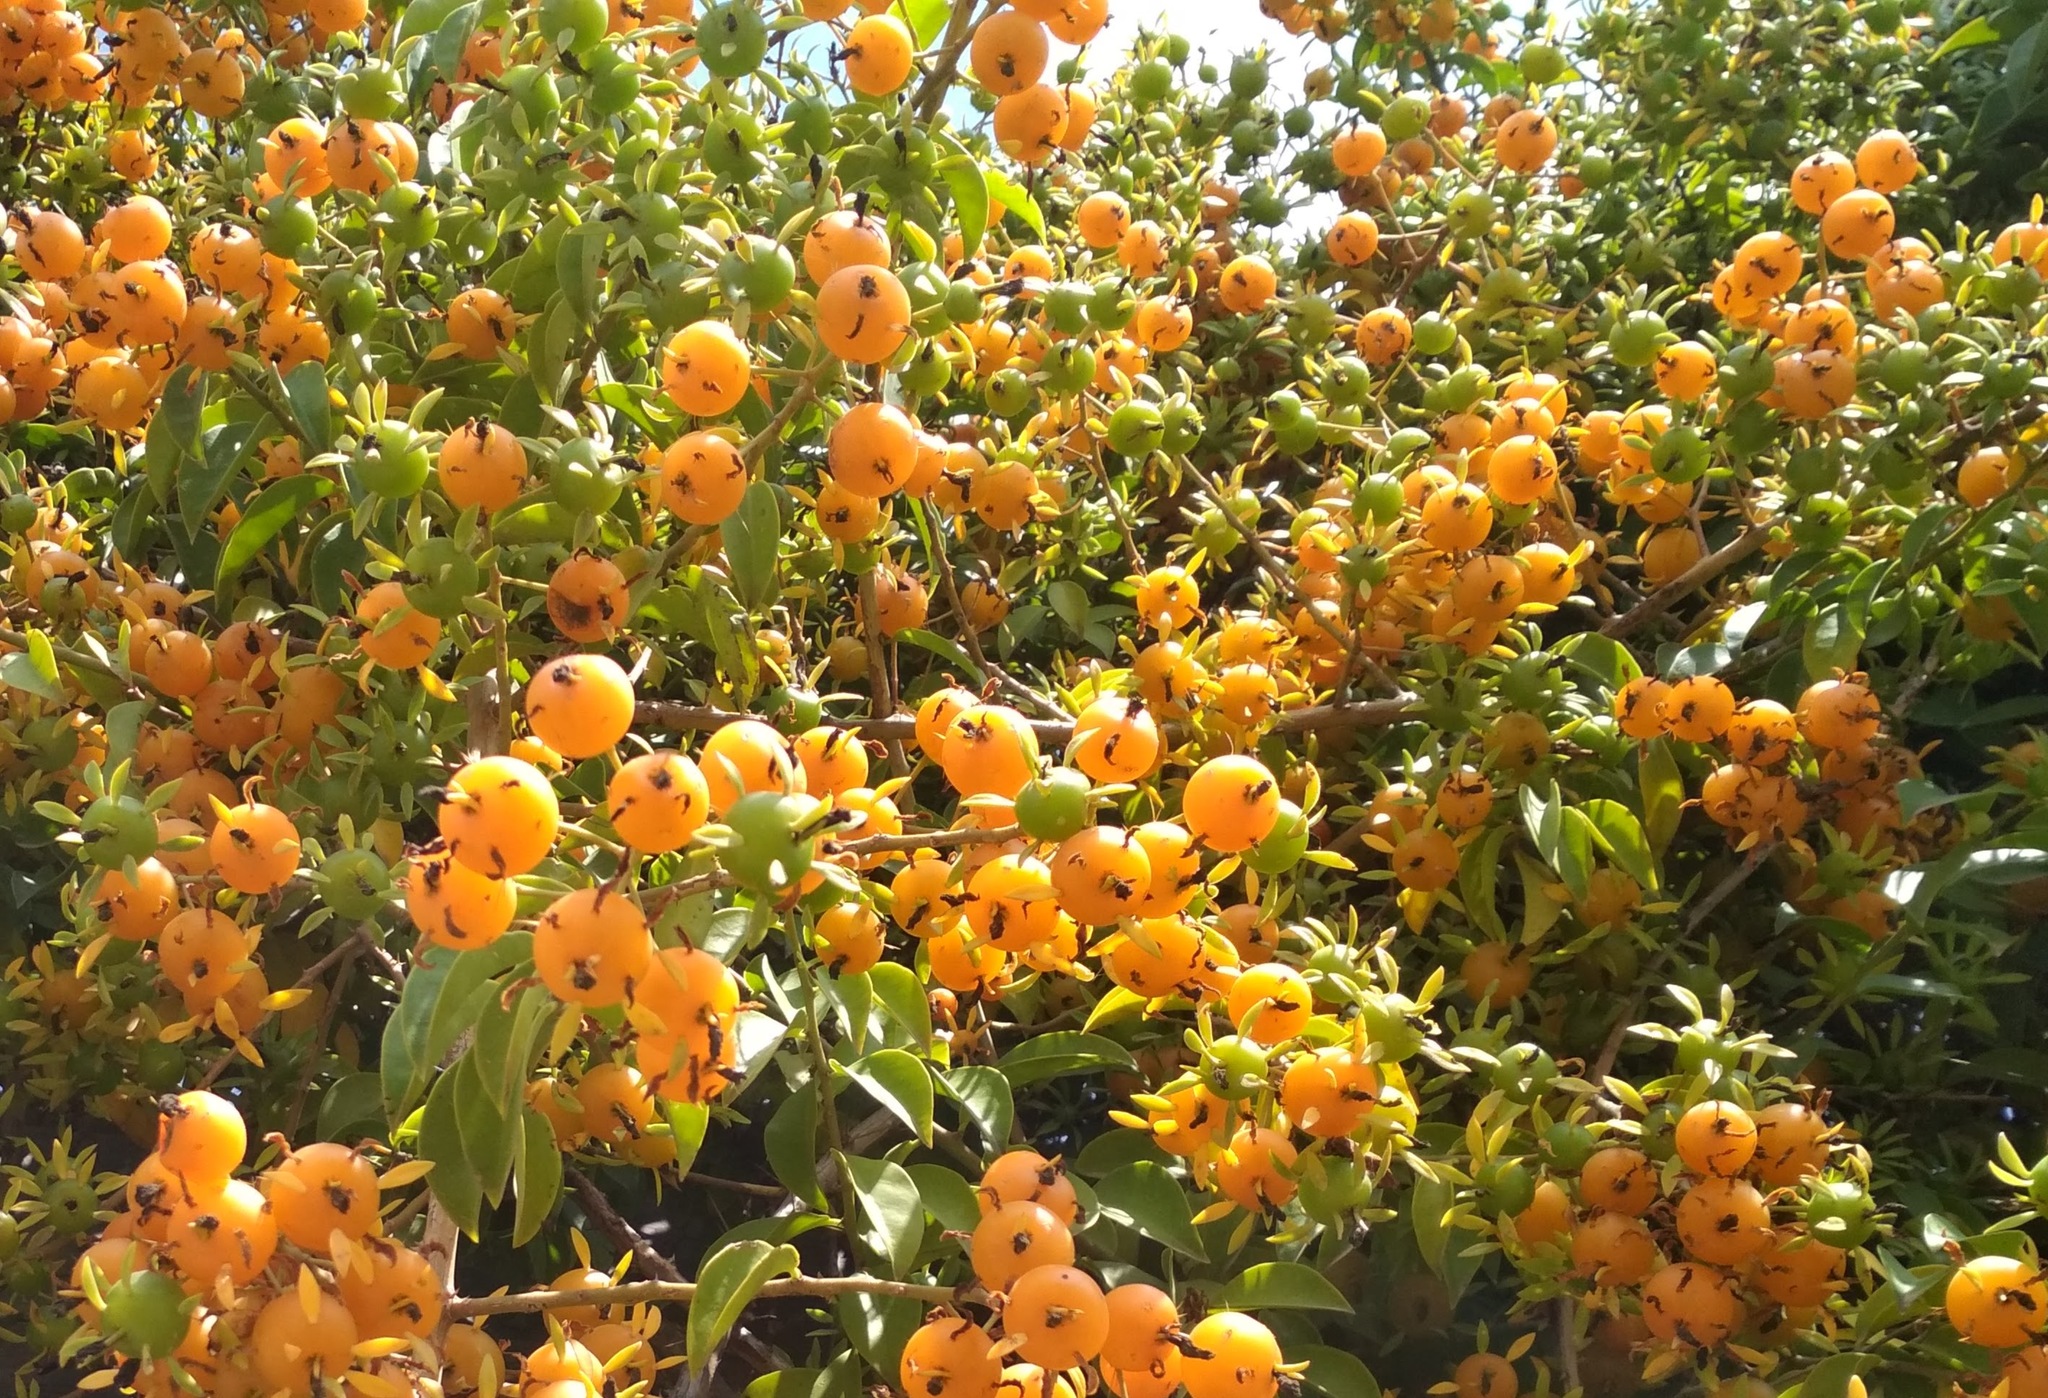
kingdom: Plantae
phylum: Tracheophyta
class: Magnoliopsida
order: Caryophyllales
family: Cactaceae
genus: Pereskia
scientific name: Pereskia aculeata
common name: Barbados gooseberry
